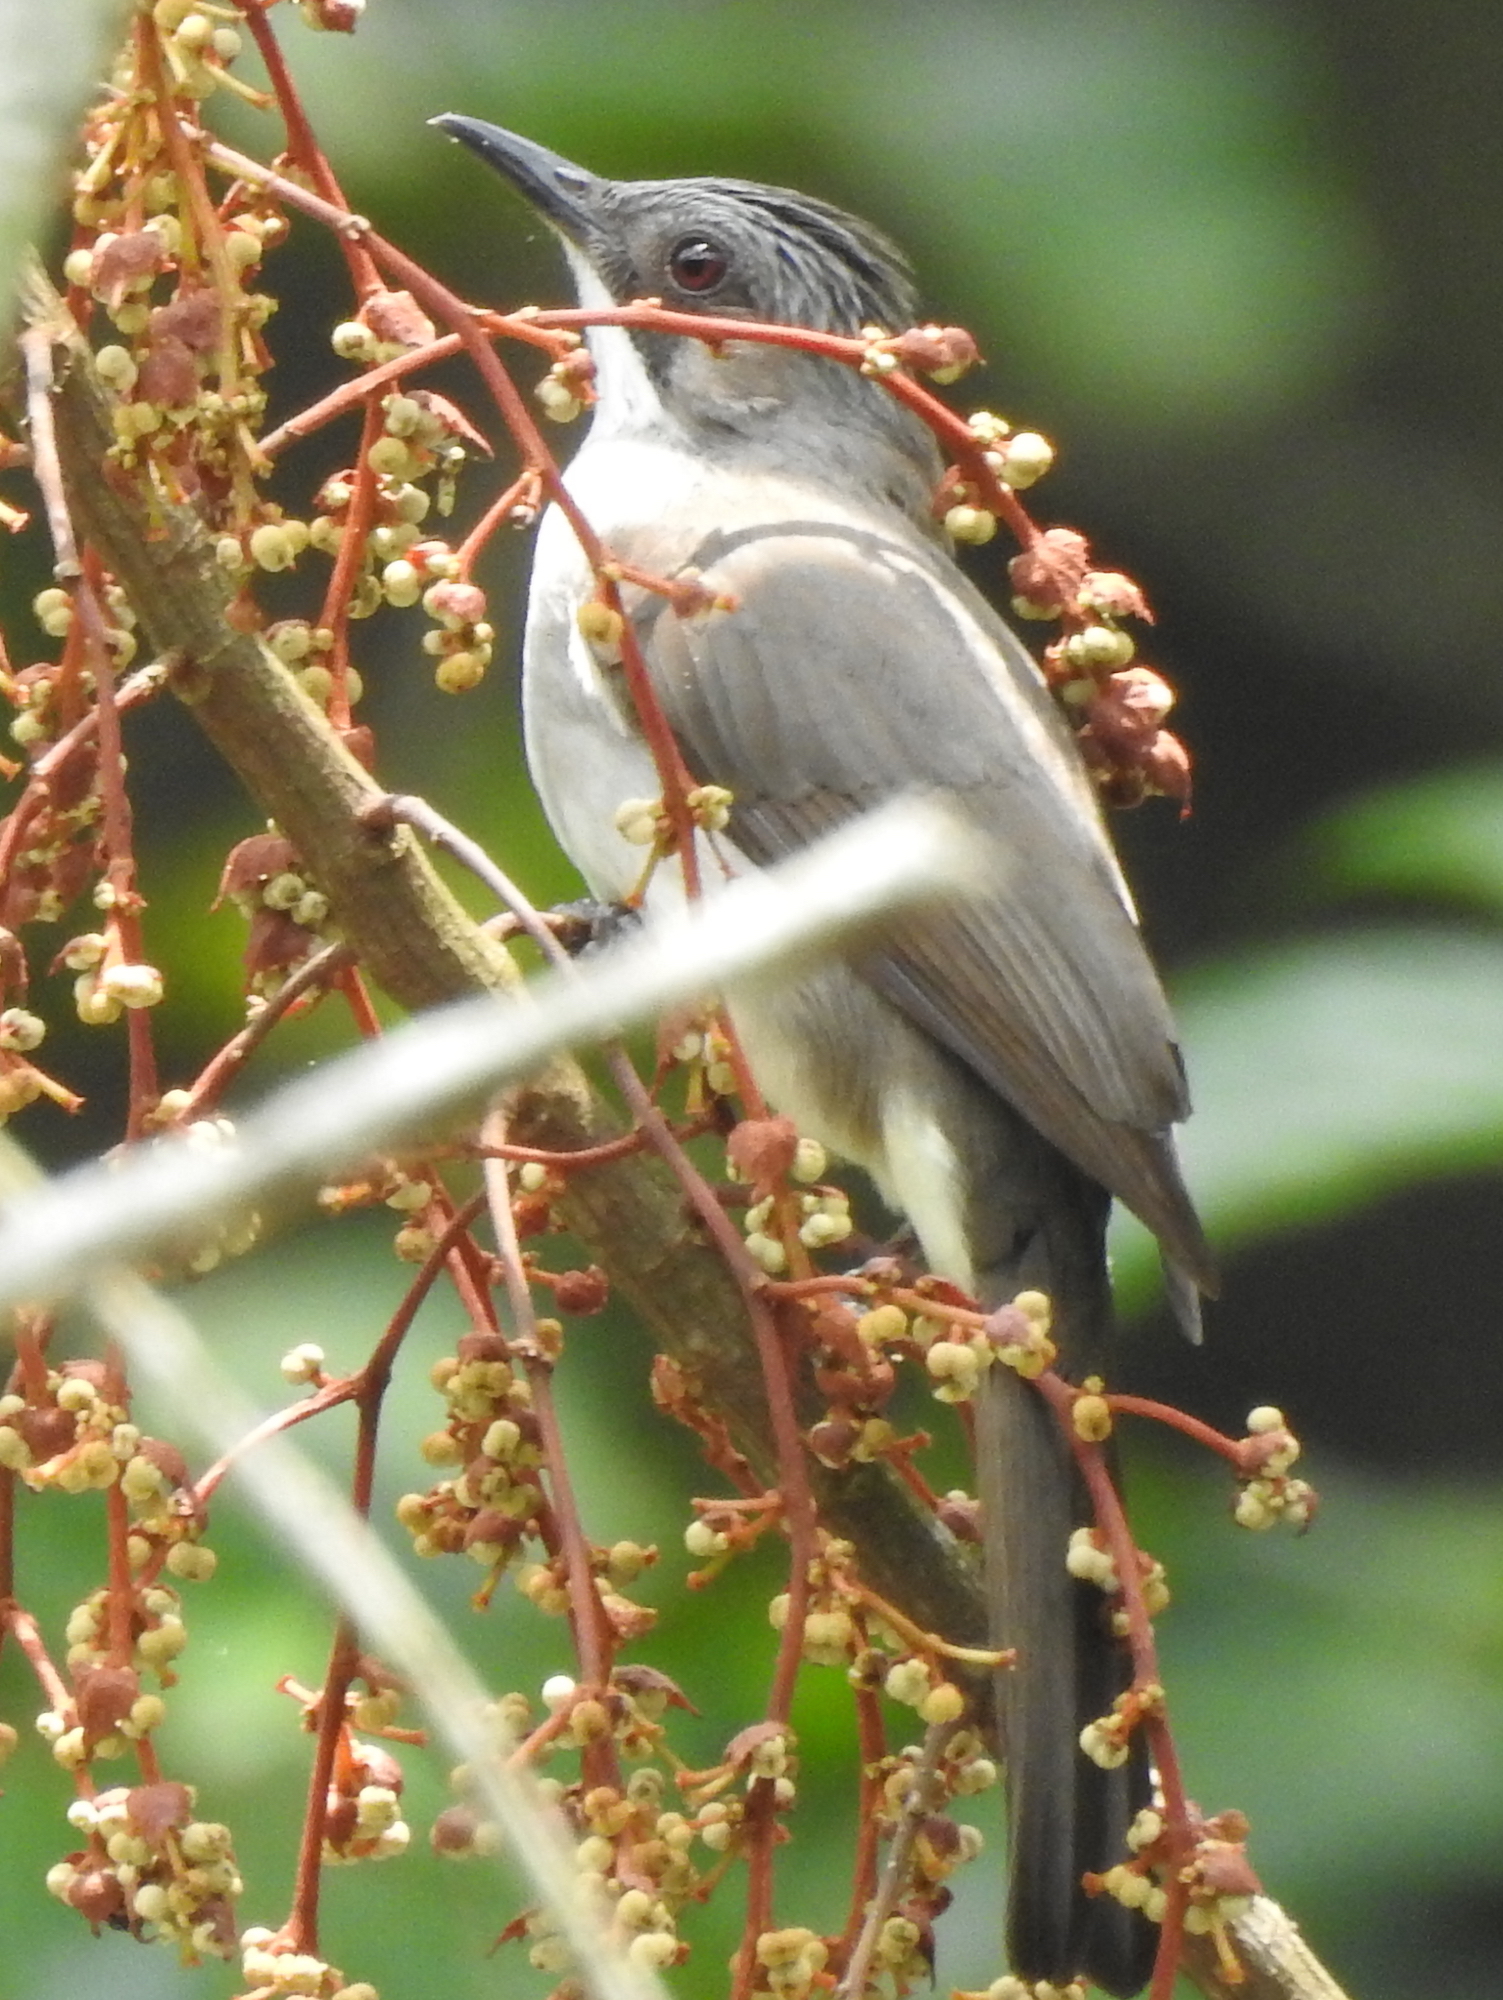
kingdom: Animalia
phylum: Chordata
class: Aves
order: Passeriformes
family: Pycnonotidae
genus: Hemixos
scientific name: Hemixos cinereus
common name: Cinereous bulbul
